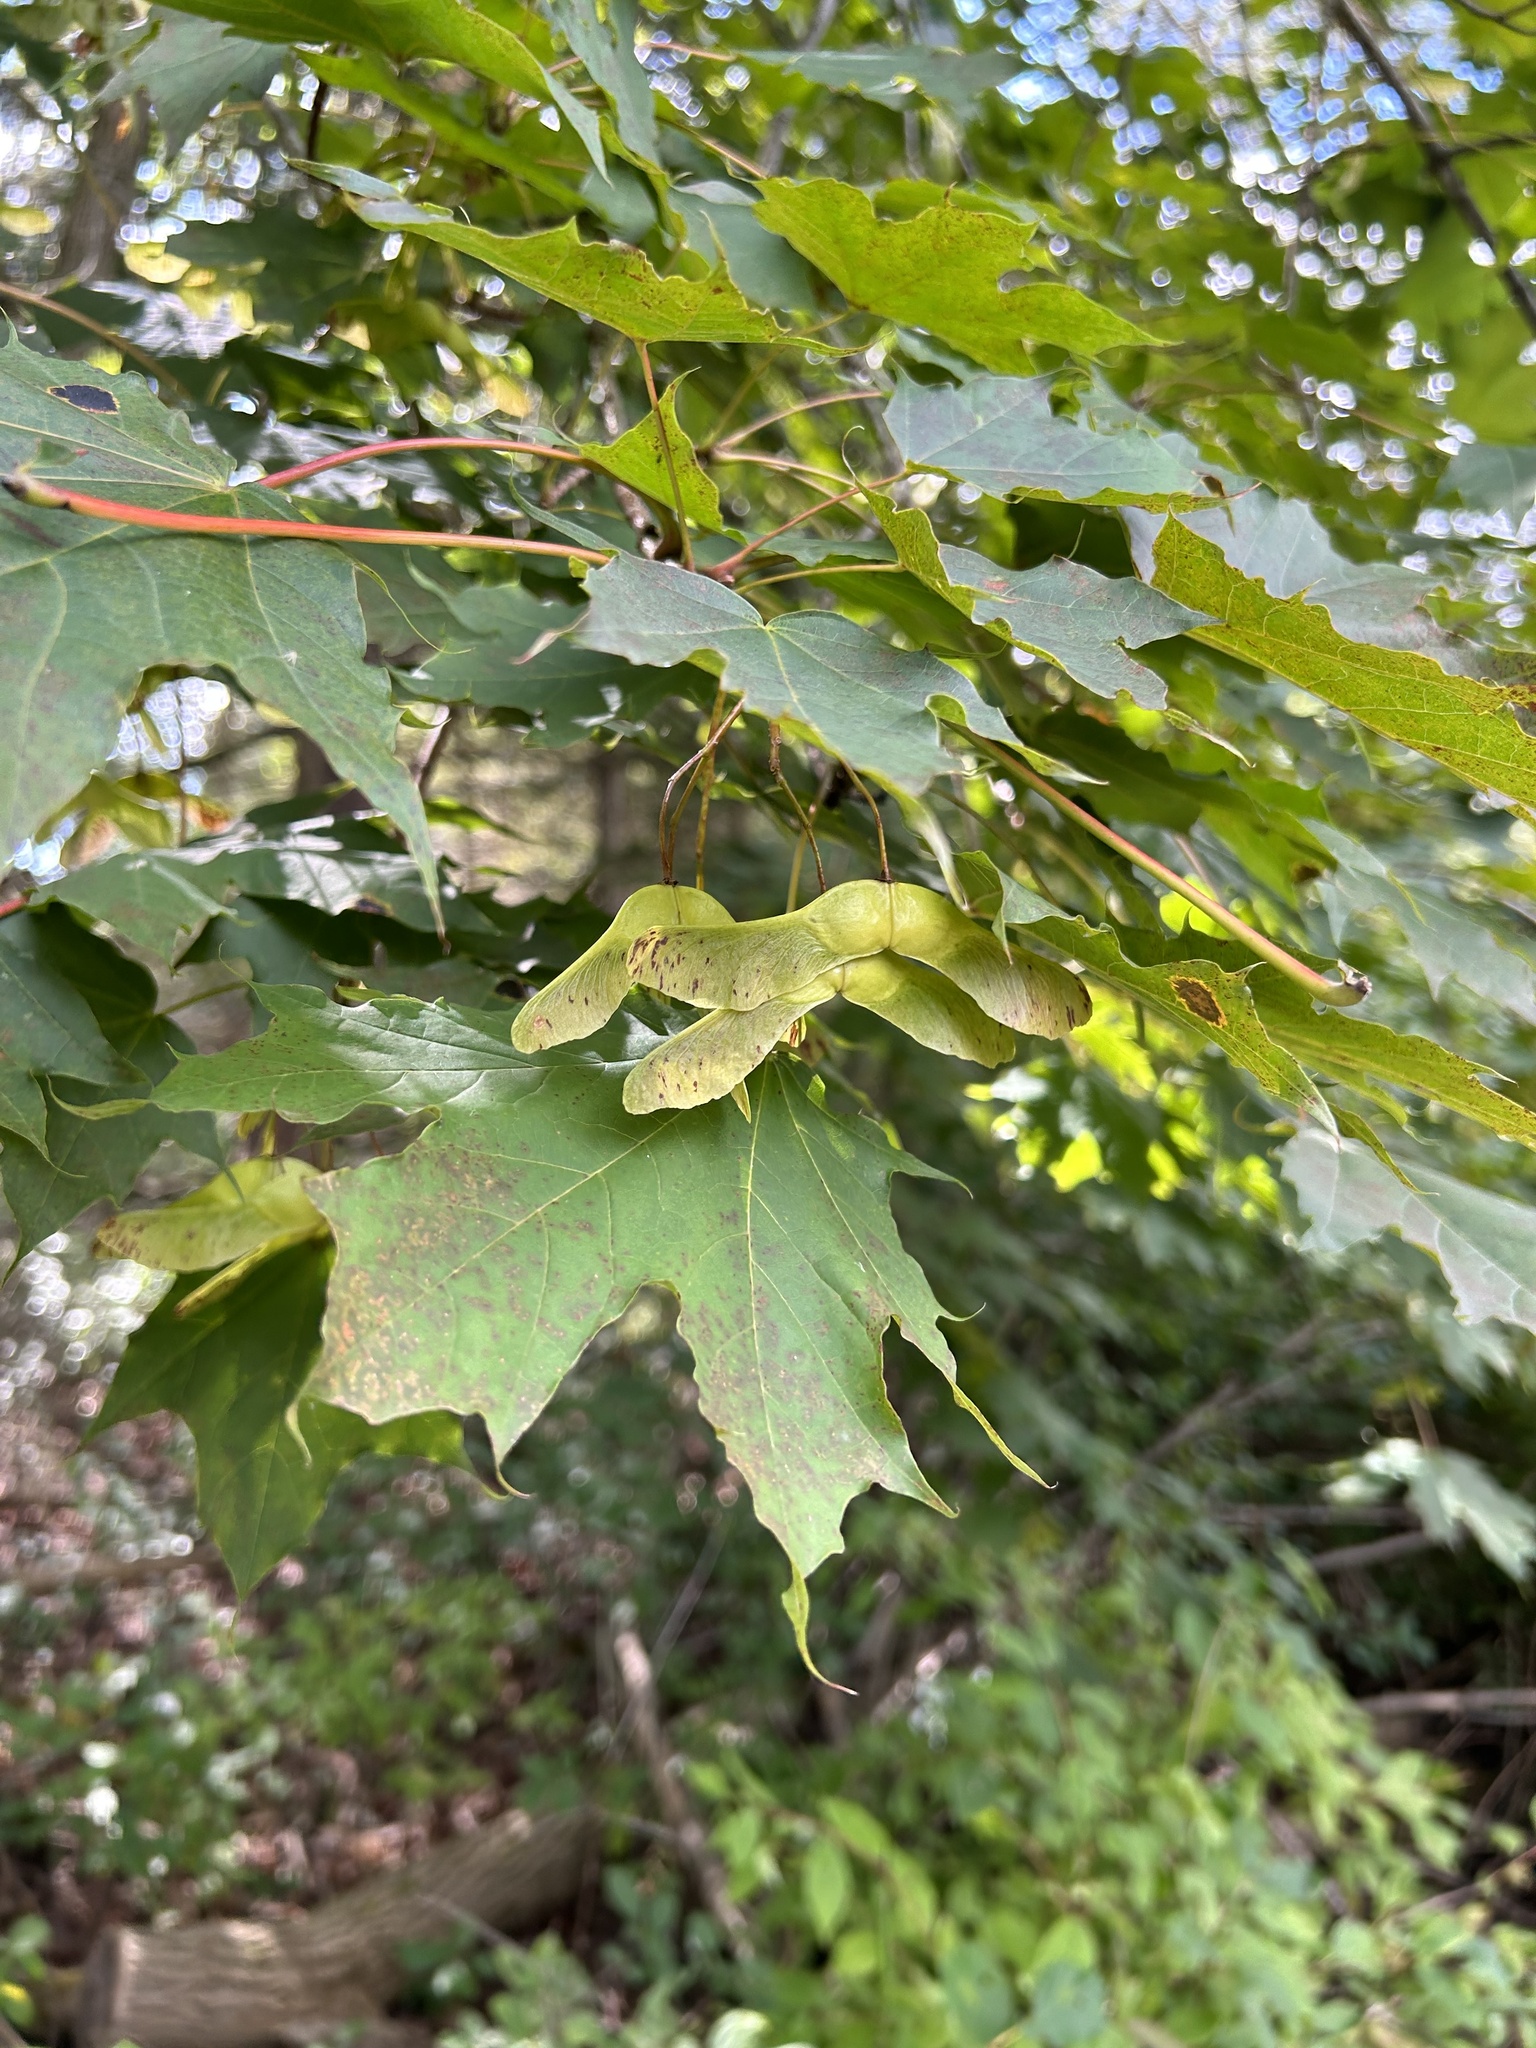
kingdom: Plantae
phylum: Tracheophyta
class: Magnoliopsida
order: Sapindales
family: Sapindaceae
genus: Acer
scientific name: Acer platanoides
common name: Norway maple
